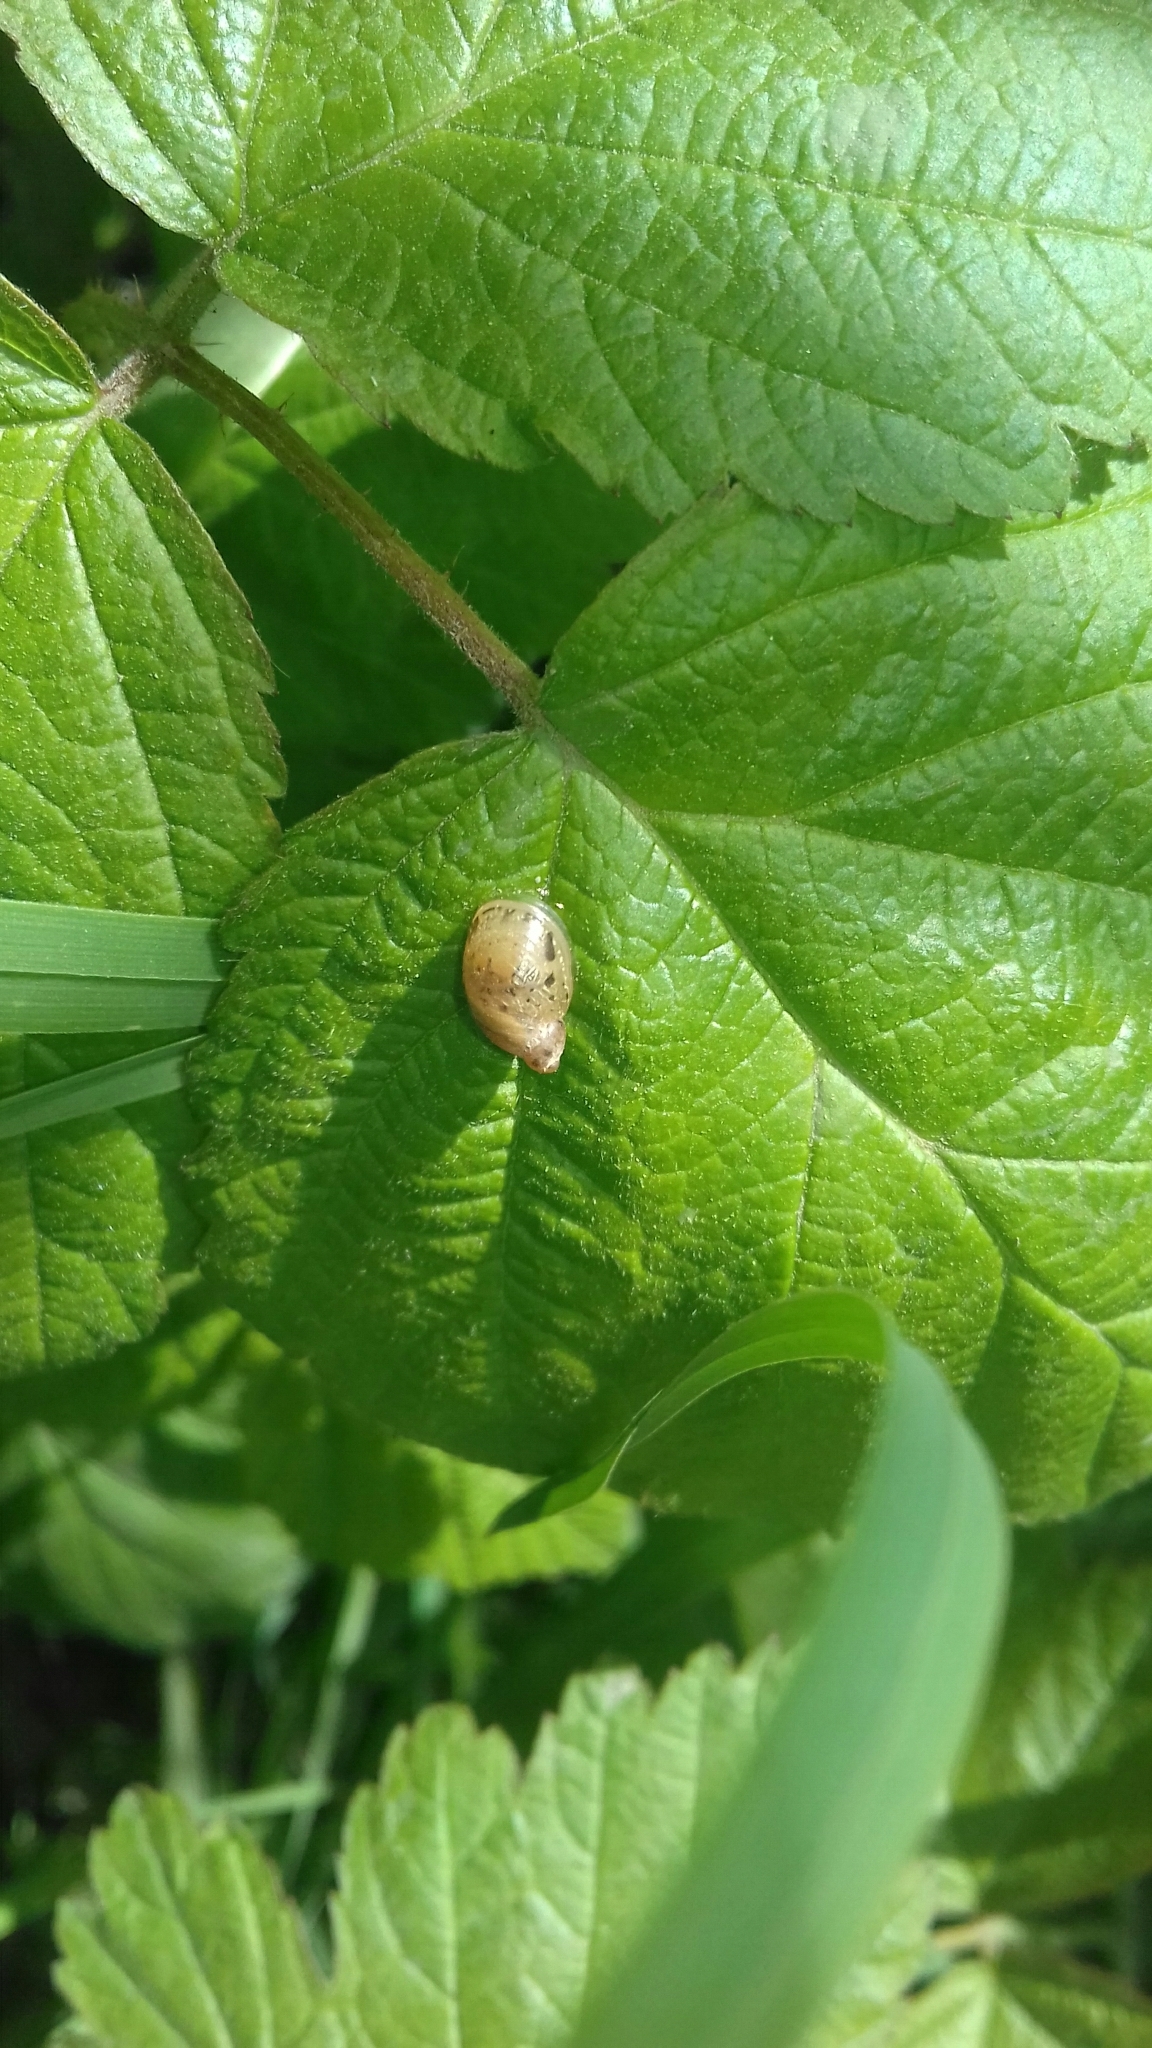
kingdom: Animalia
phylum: Mollusca
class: Gastropoda
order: Stylommatophora
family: Succineidae
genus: Succinea
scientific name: Succinea putris
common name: European ambersnail
